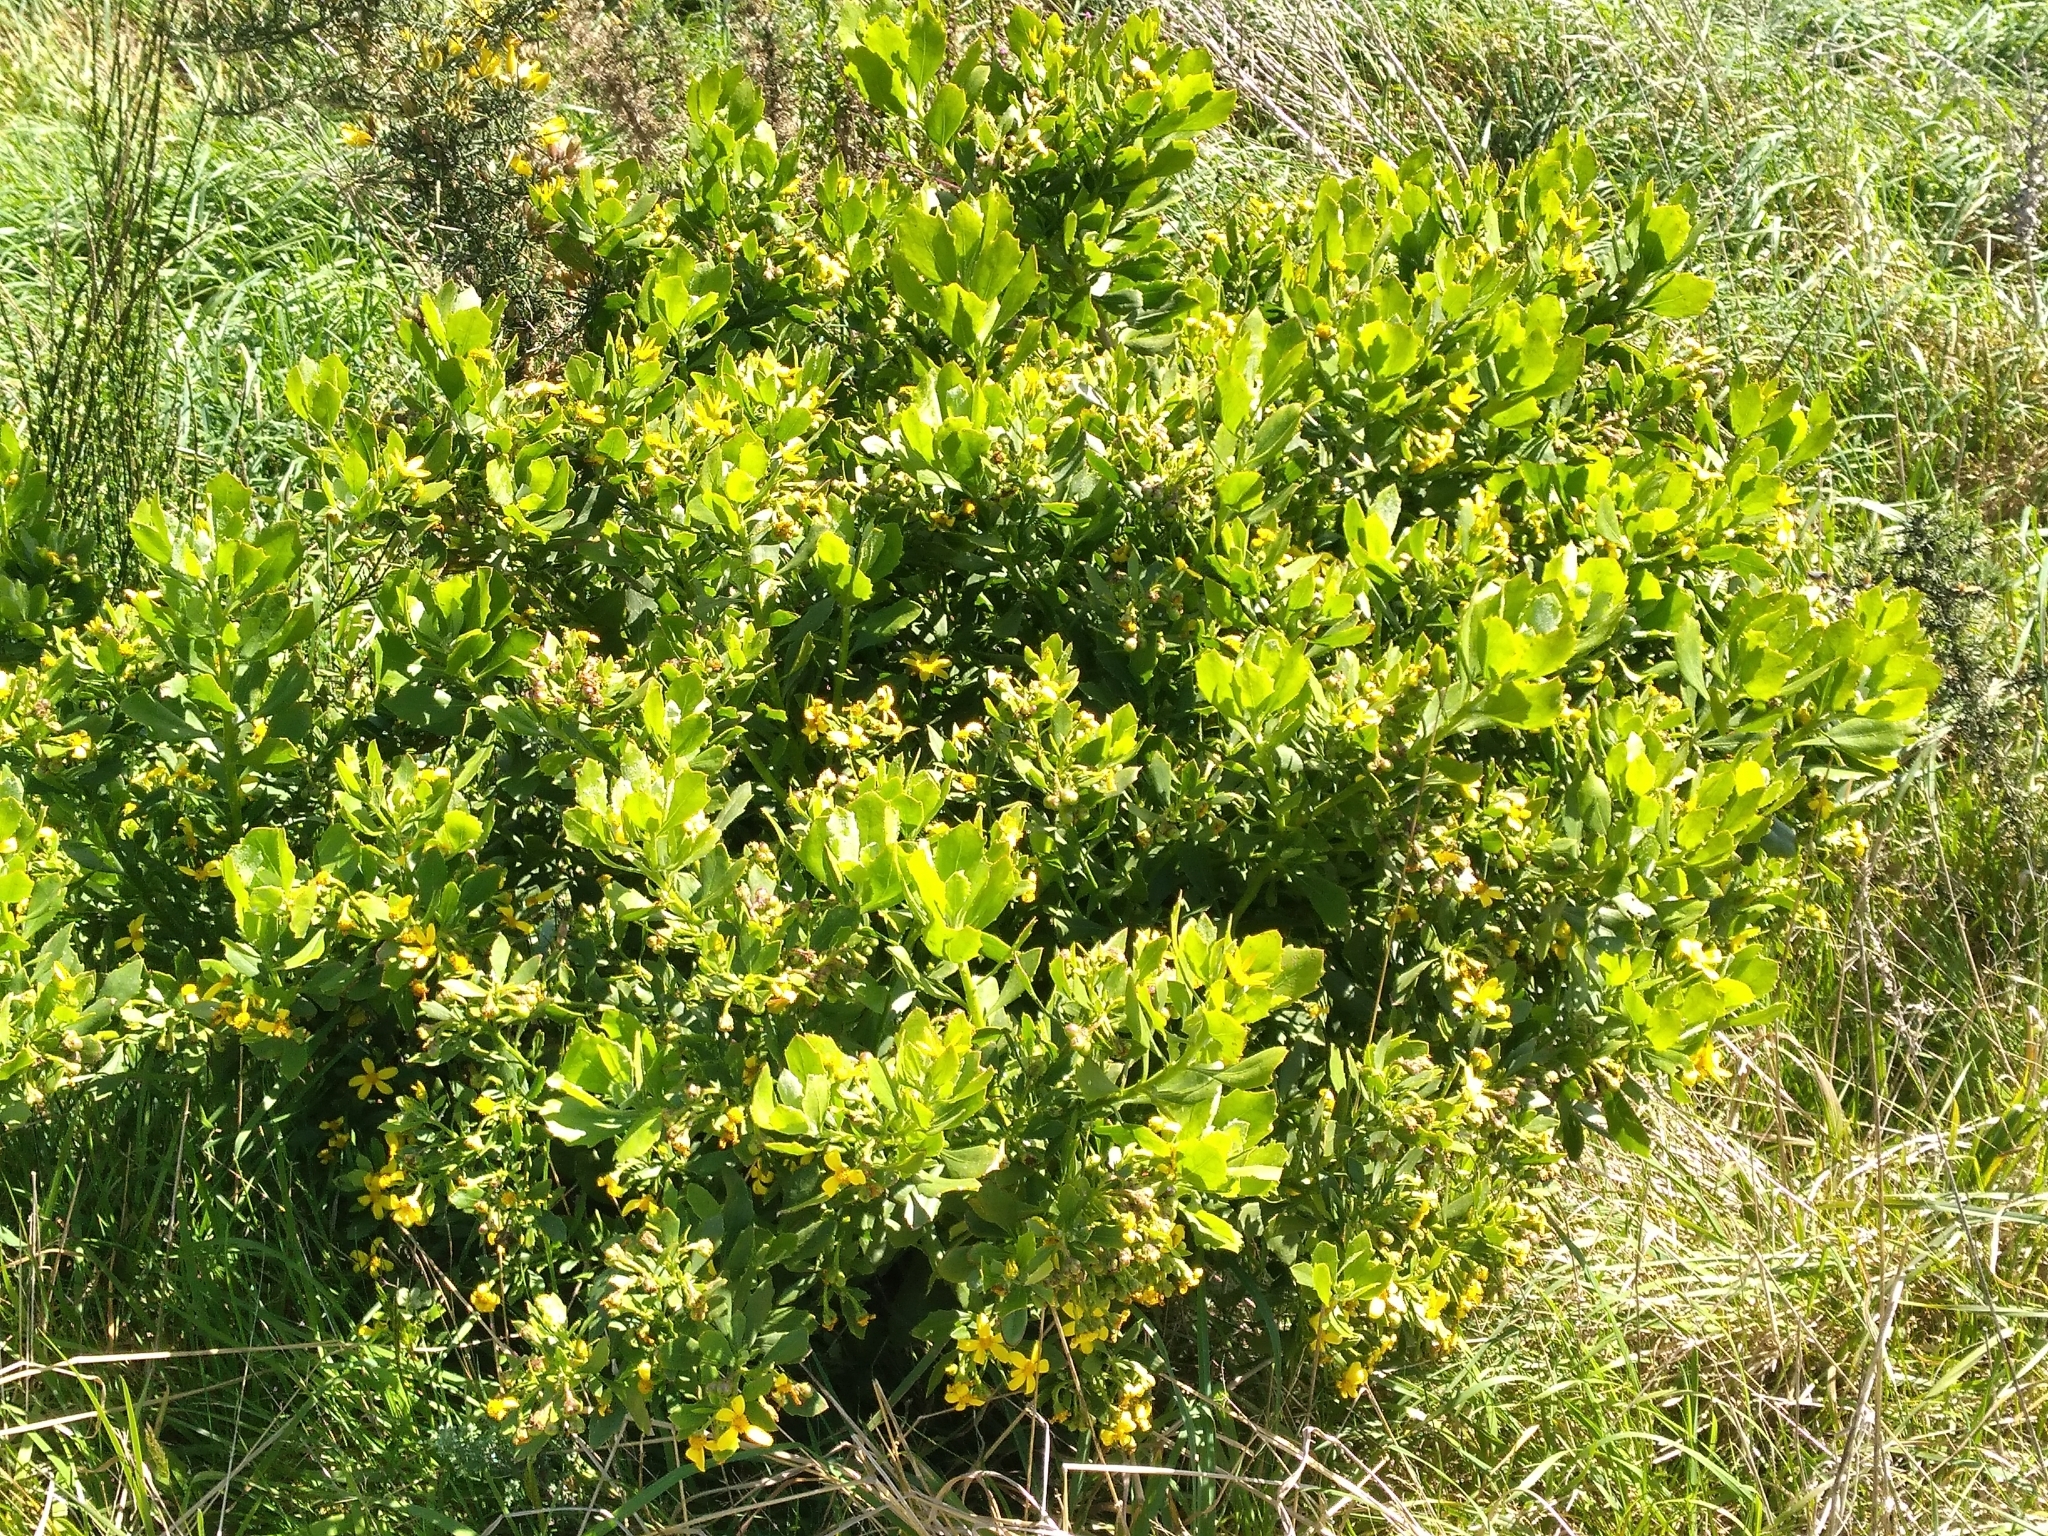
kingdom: Plantae
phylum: Tracheophyta
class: Magnoliopsida
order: Asterales
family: Asteraceae
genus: Osteospermum
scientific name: Osteospermum moniliferum
